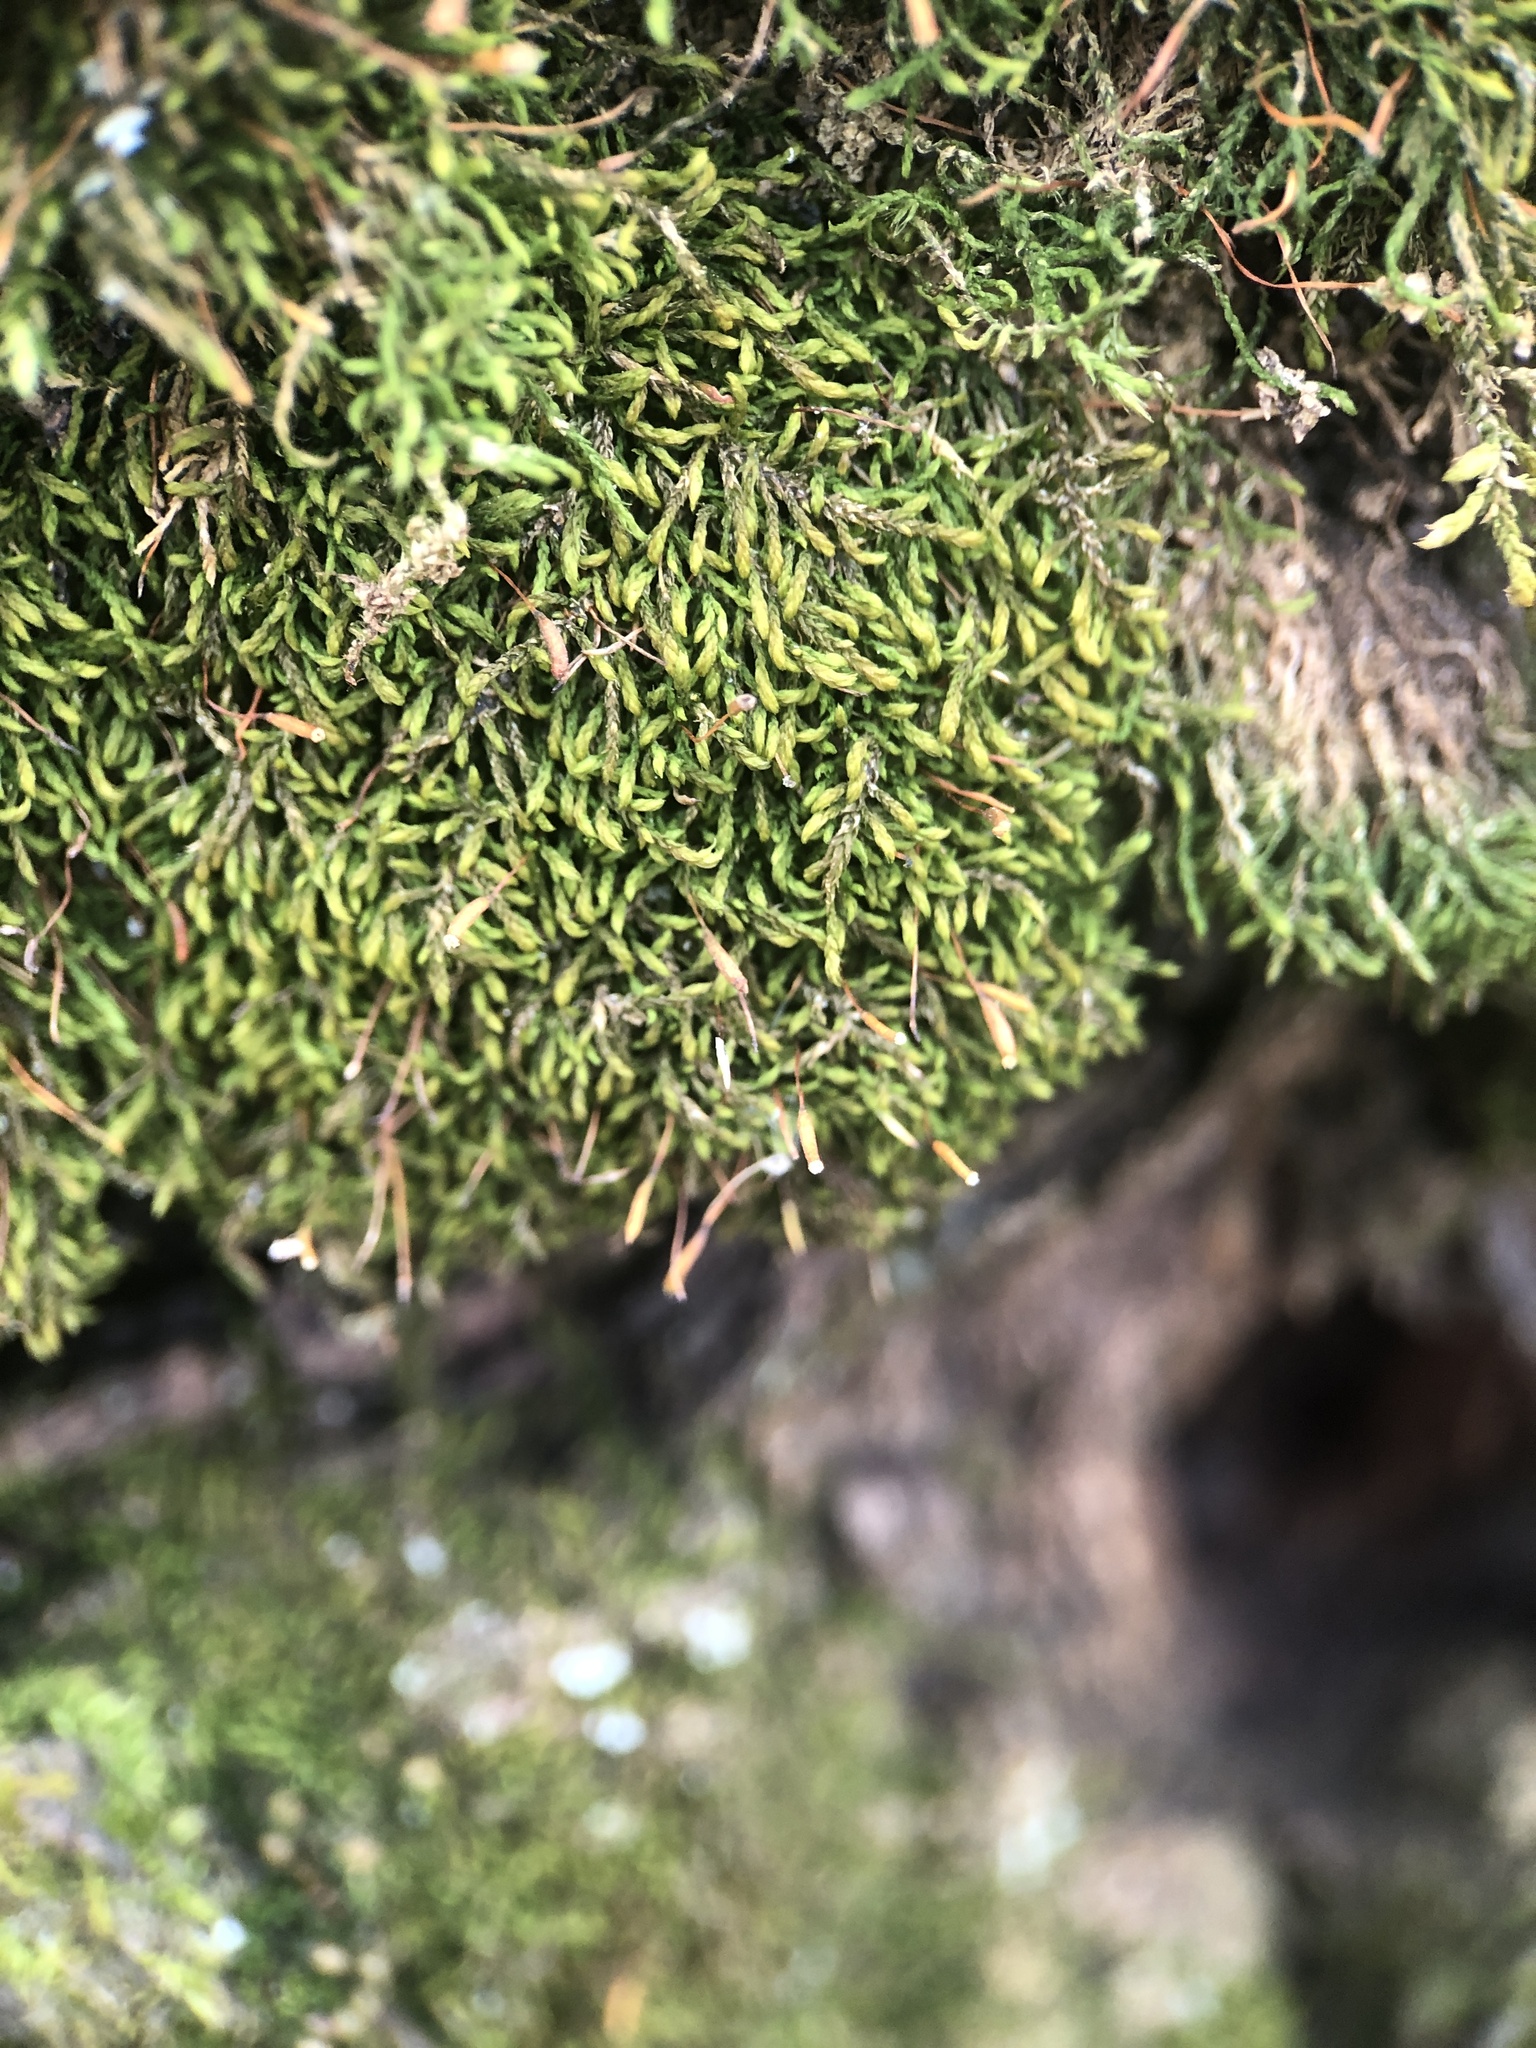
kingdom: Plantae
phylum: Bryophyta
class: Bryopsida
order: Hypnales
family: Leskeaceae
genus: Leskea
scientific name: Leskea polycarpa
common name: Many-fruited leske's moss
